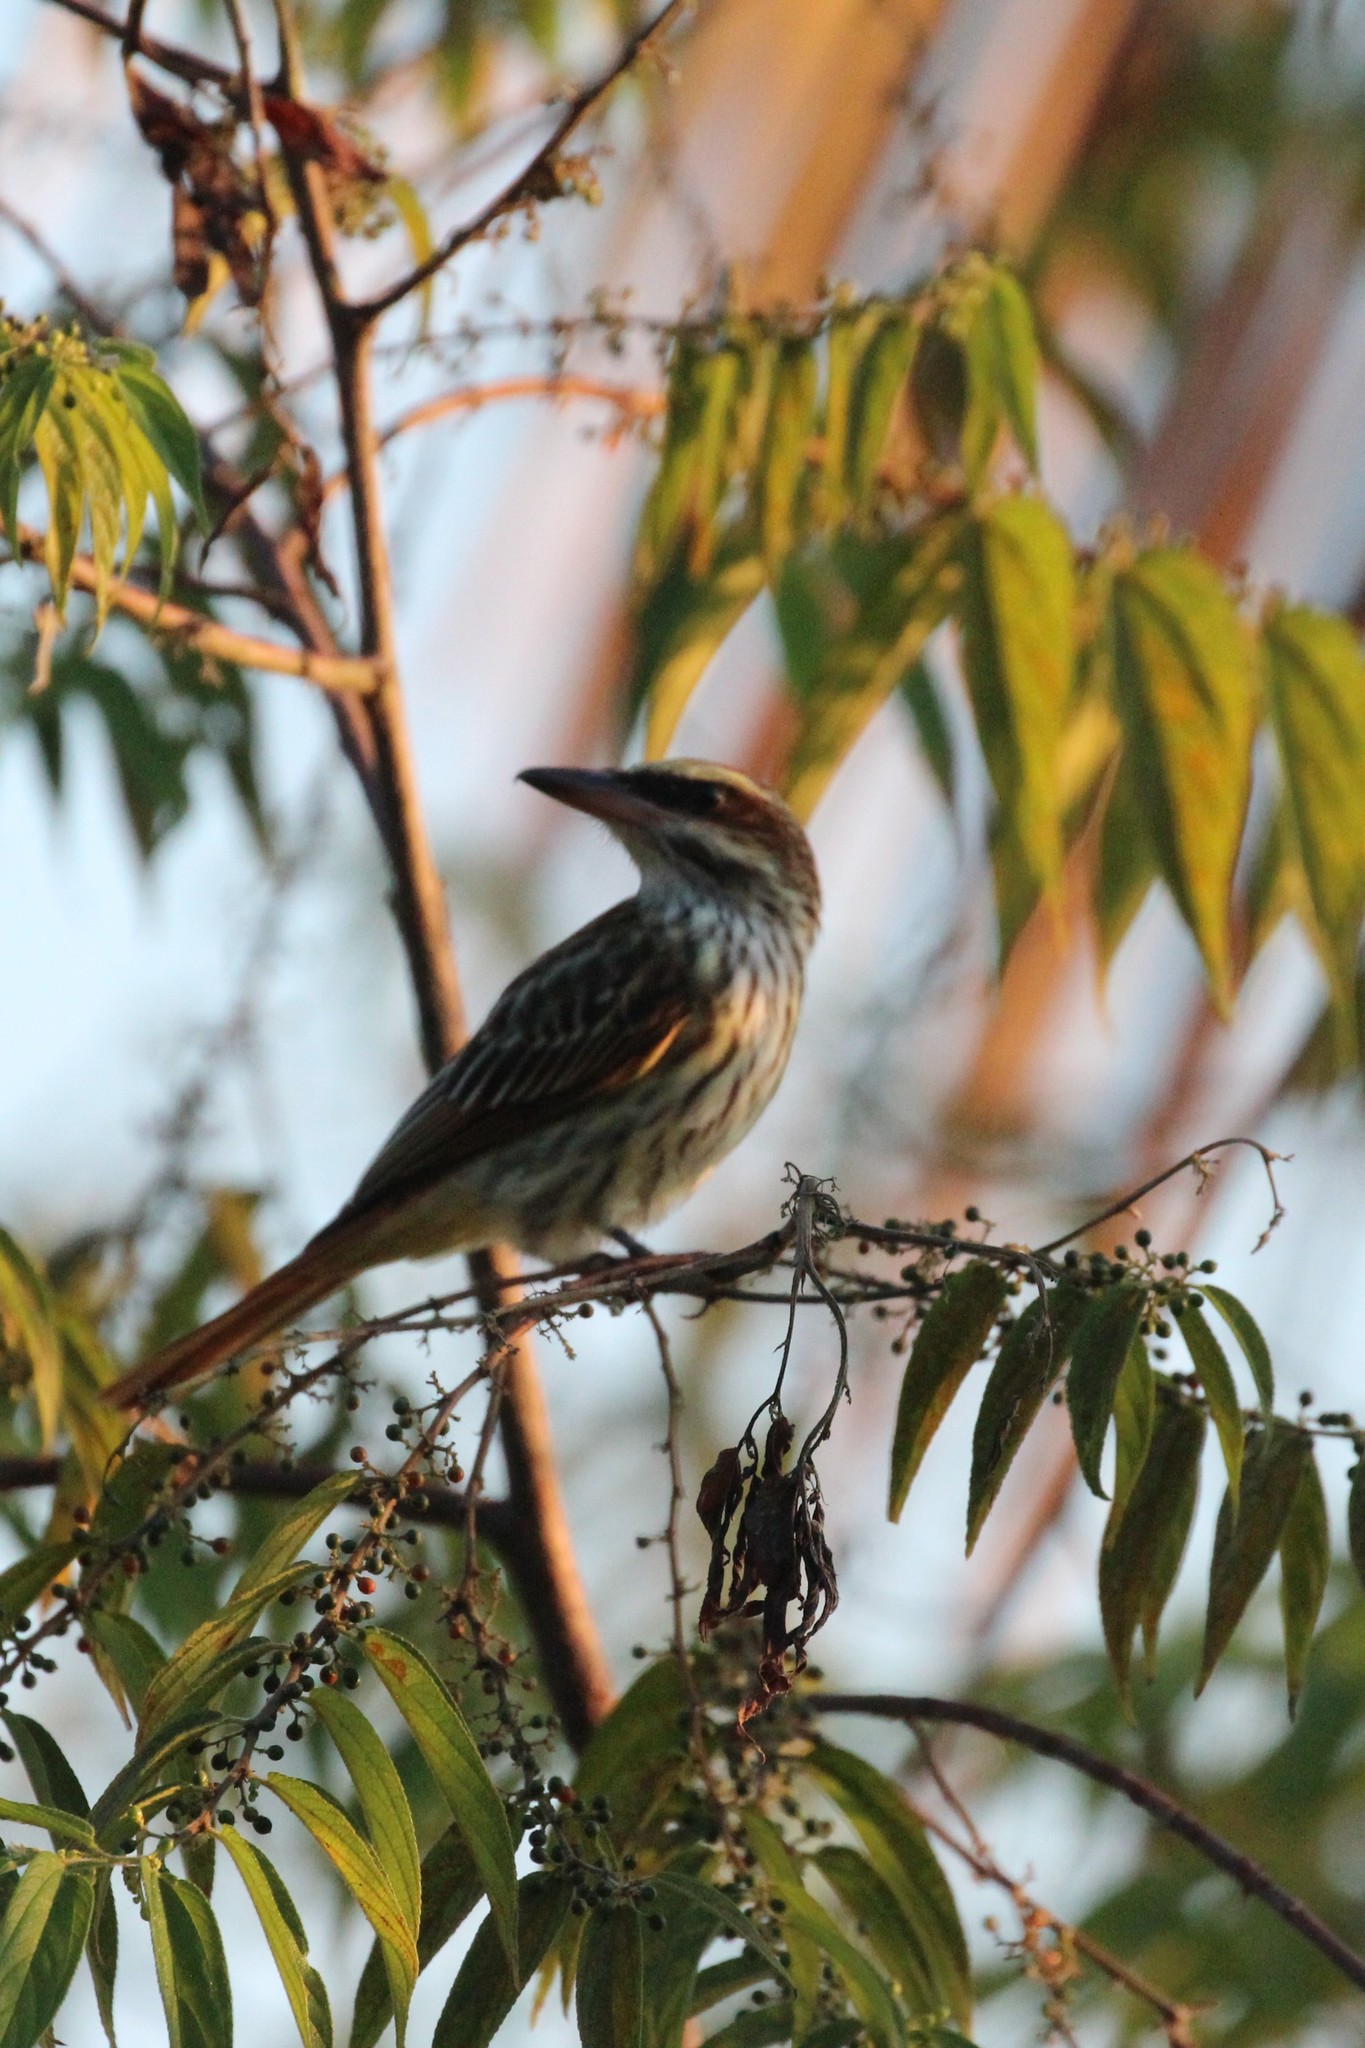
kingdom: Animalia
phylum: Chordata
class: Aves
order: Passeriformes
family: Tyrannidae
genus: Myiodynastes
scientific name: Myiodynastes maculatus
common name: Streaked flycatcher
